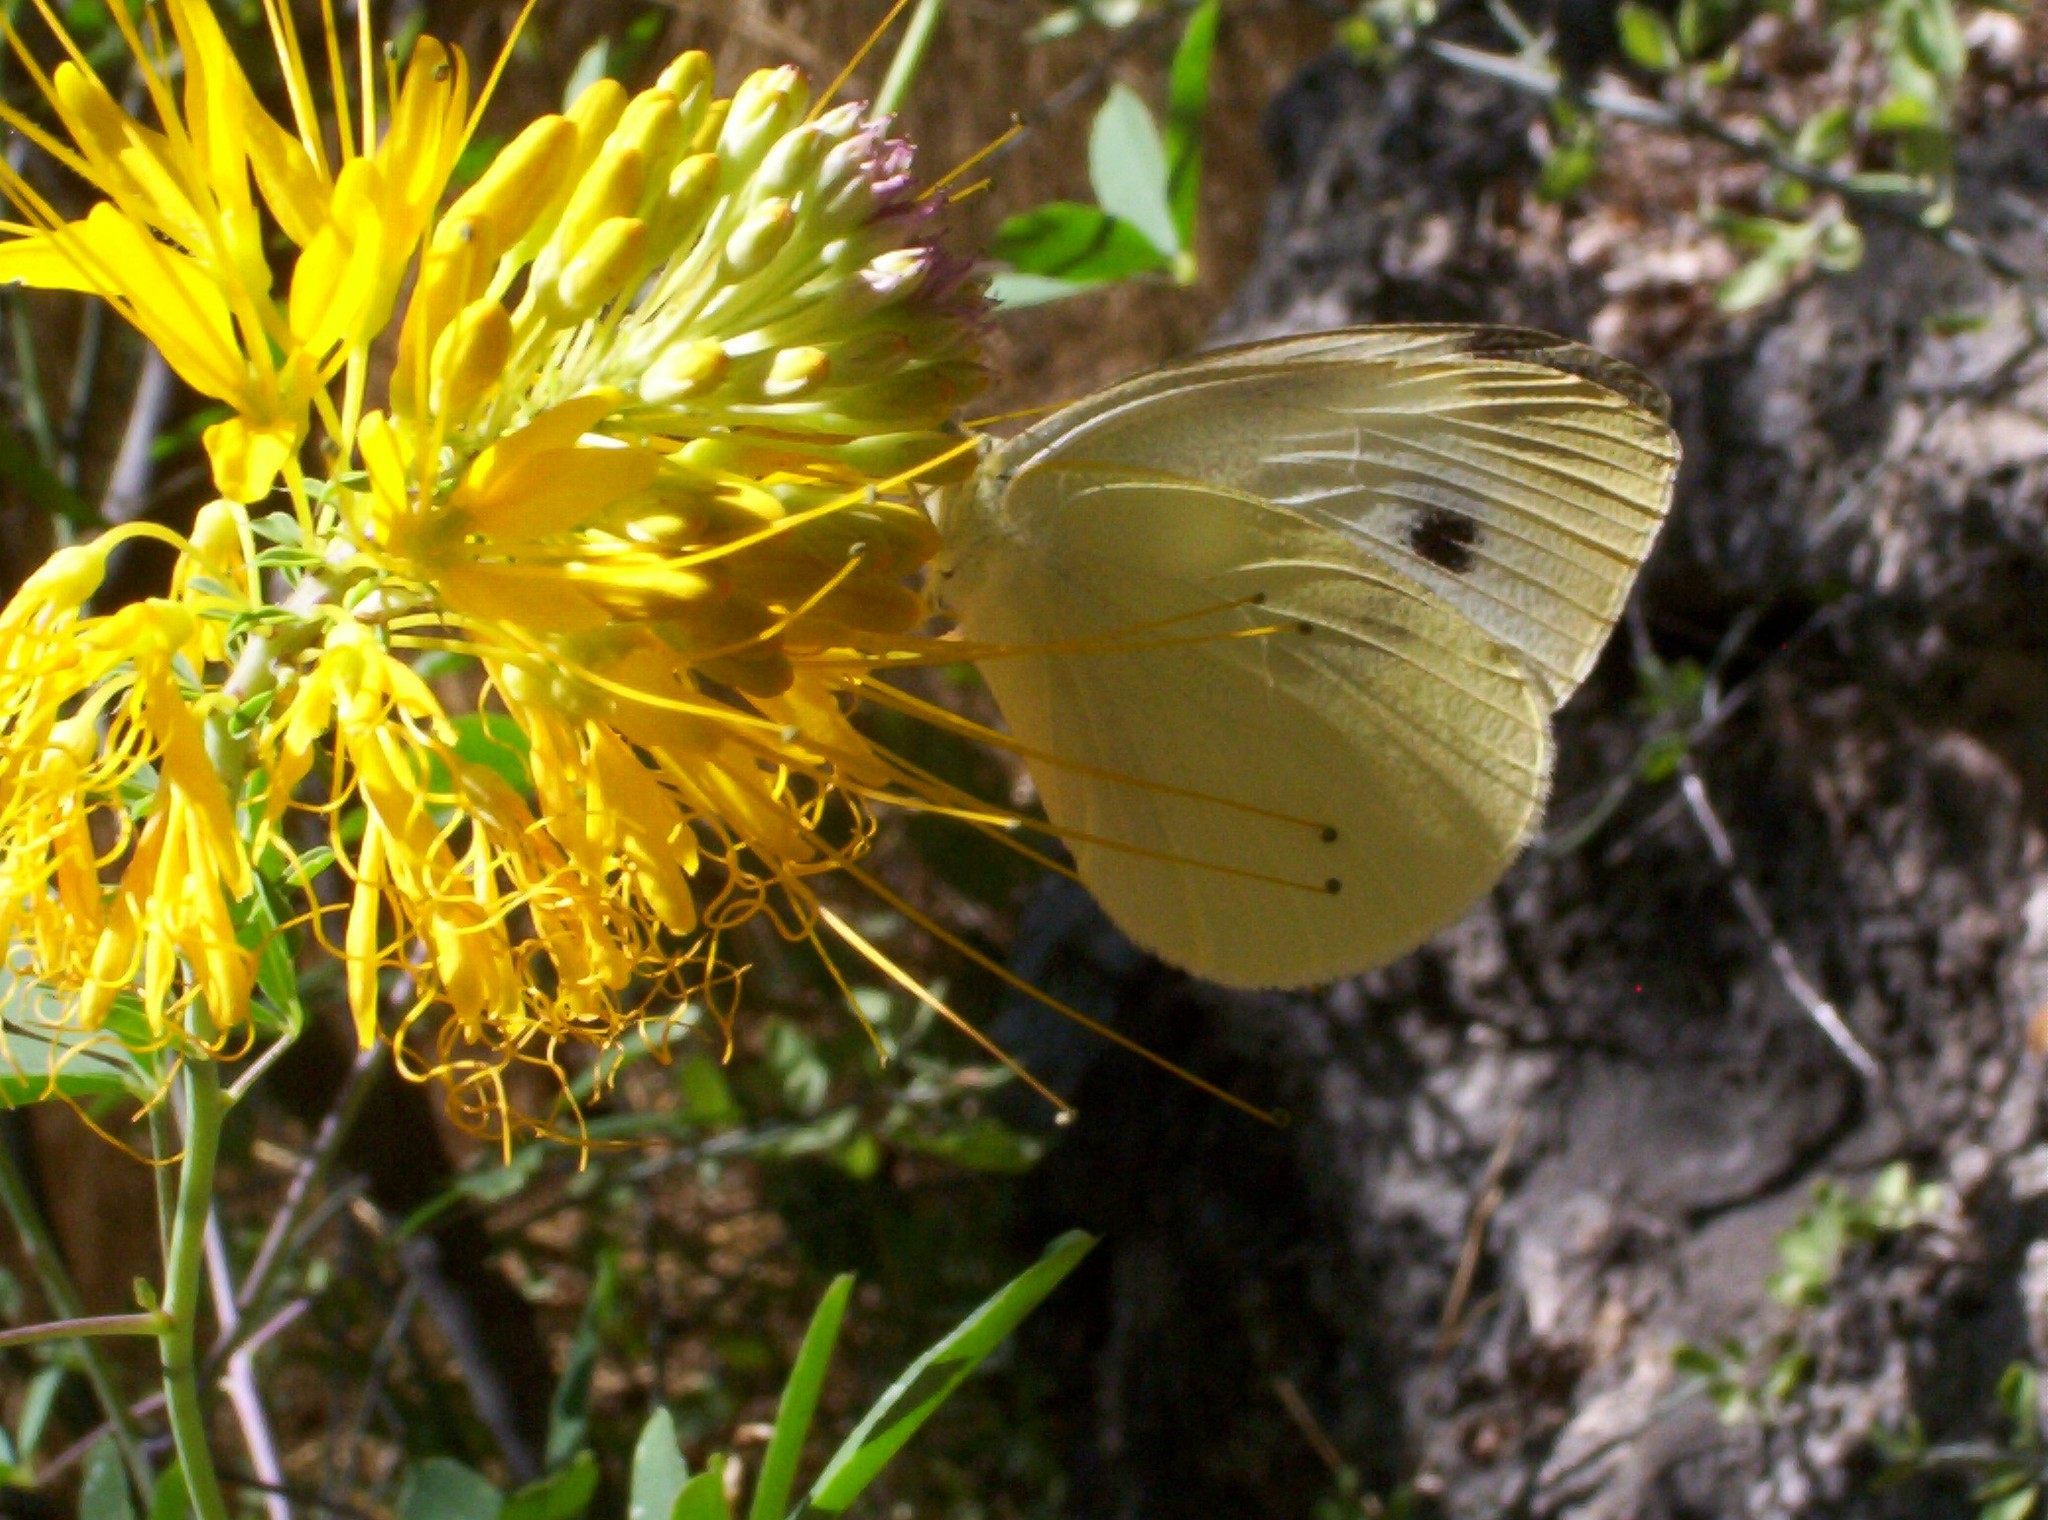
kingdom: Animalia
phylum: Arthropoda
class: Insecta
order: Lepidoptera
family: Pieridae
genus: Pieris
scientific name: Pieris rapae
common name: Small white
